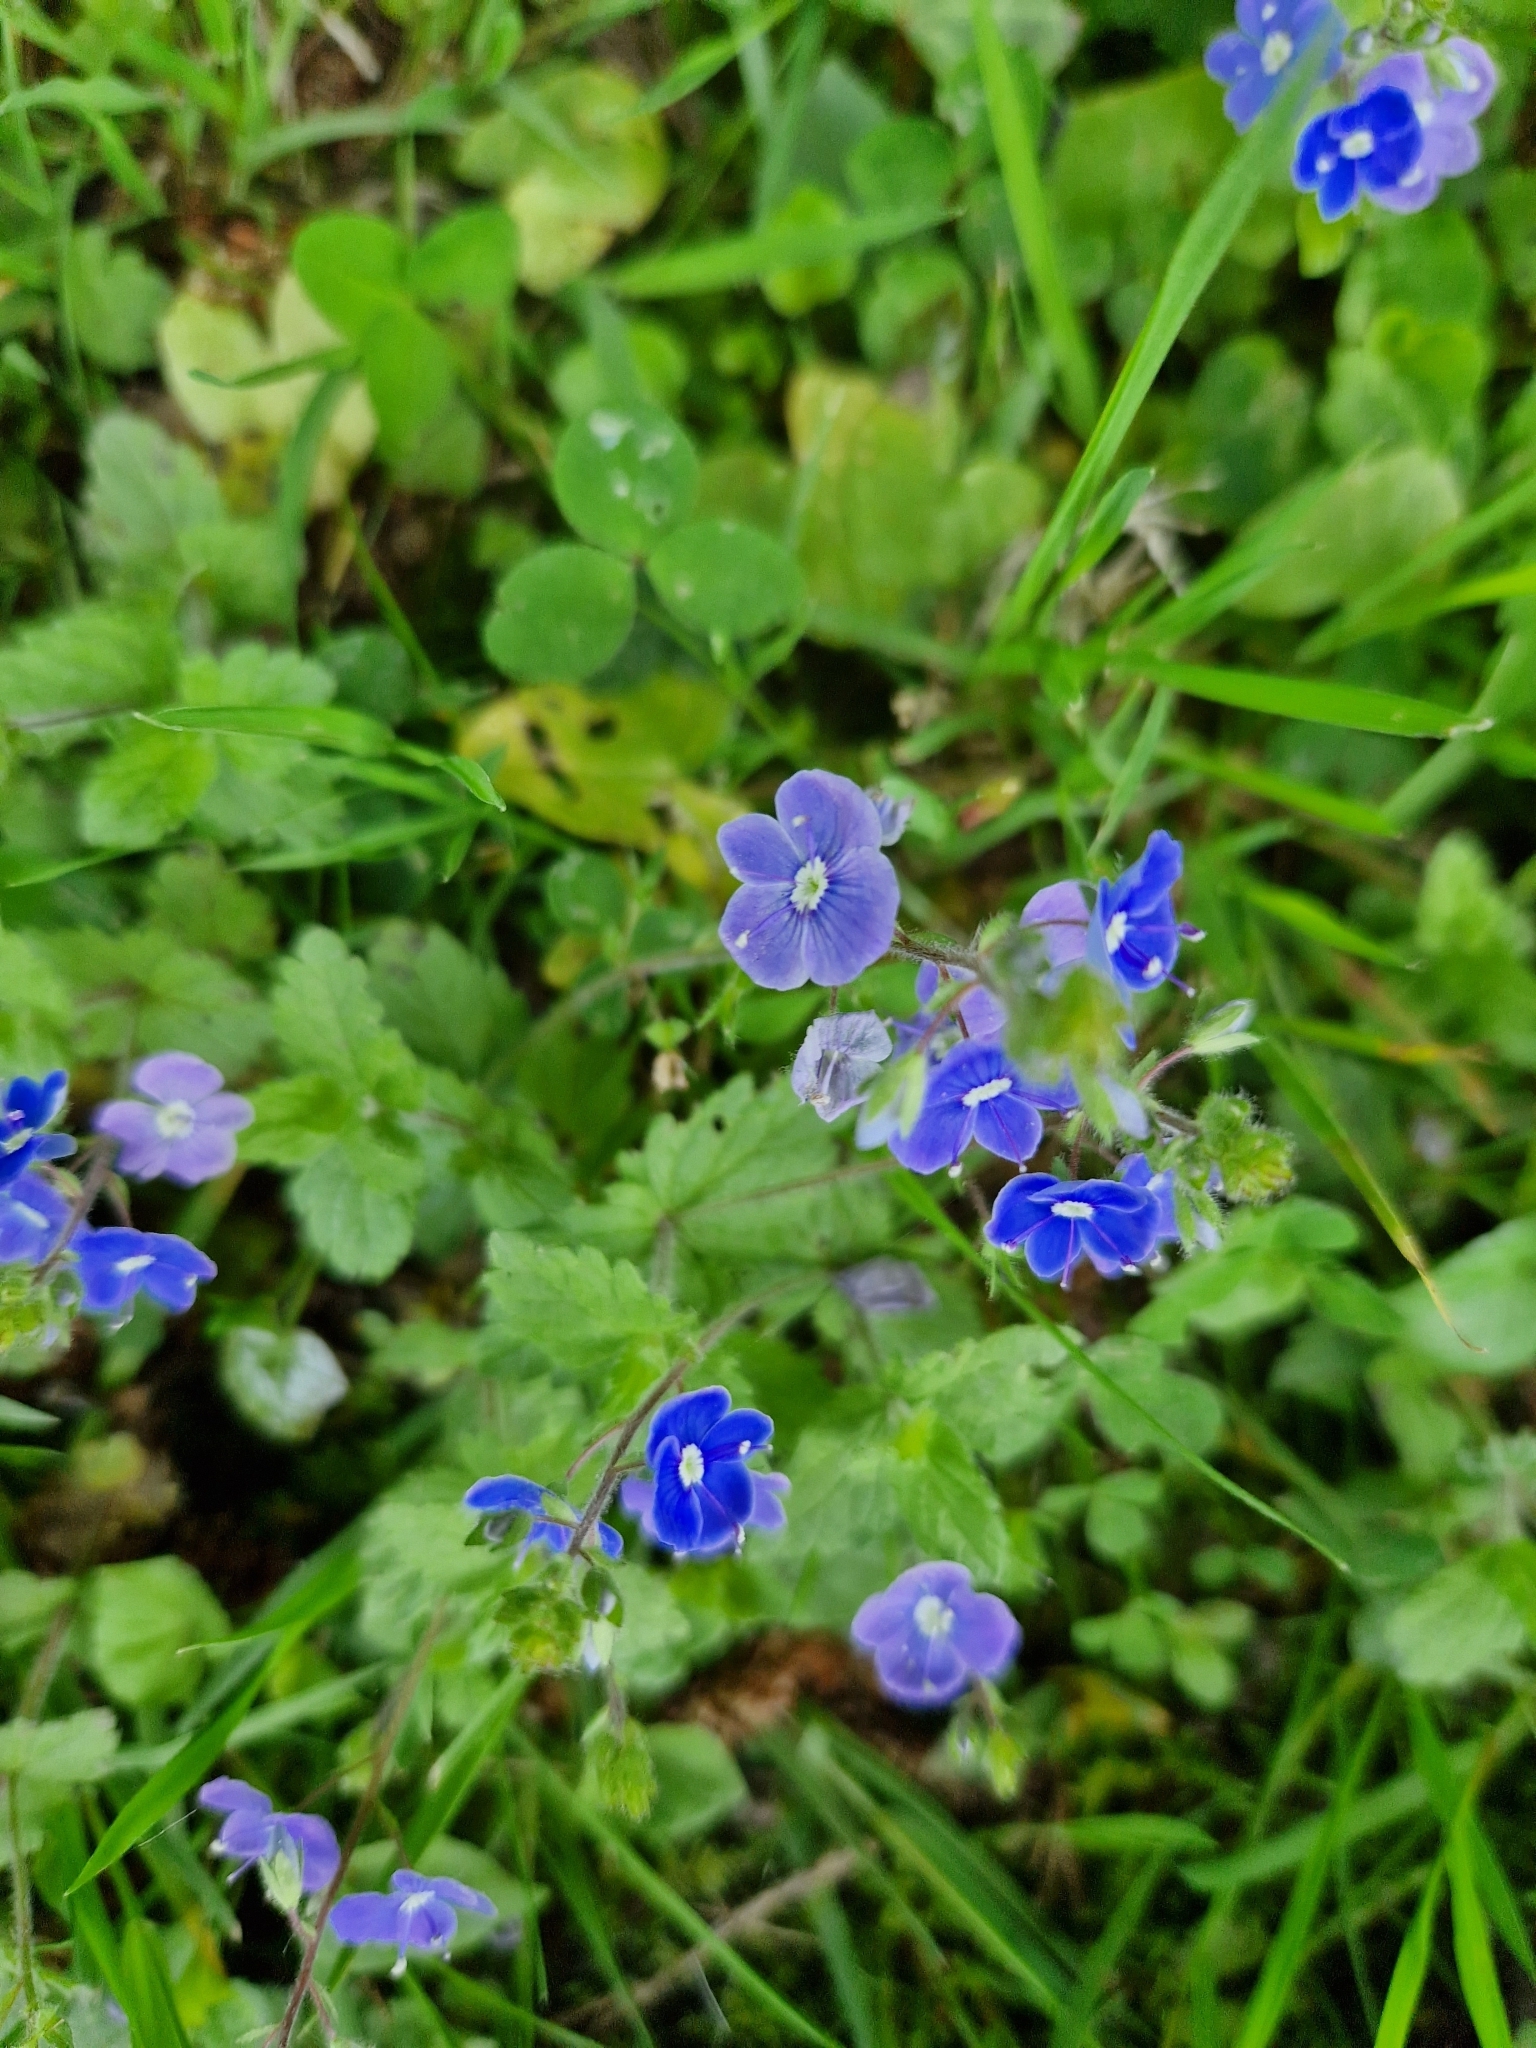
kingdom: Plantae
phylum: Tracheophyta
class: Magnoliopsida
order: Lamiales
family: Plantaginaceae
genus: Veronica
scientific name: Veronica chamaedrys
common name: Germander speedwell
